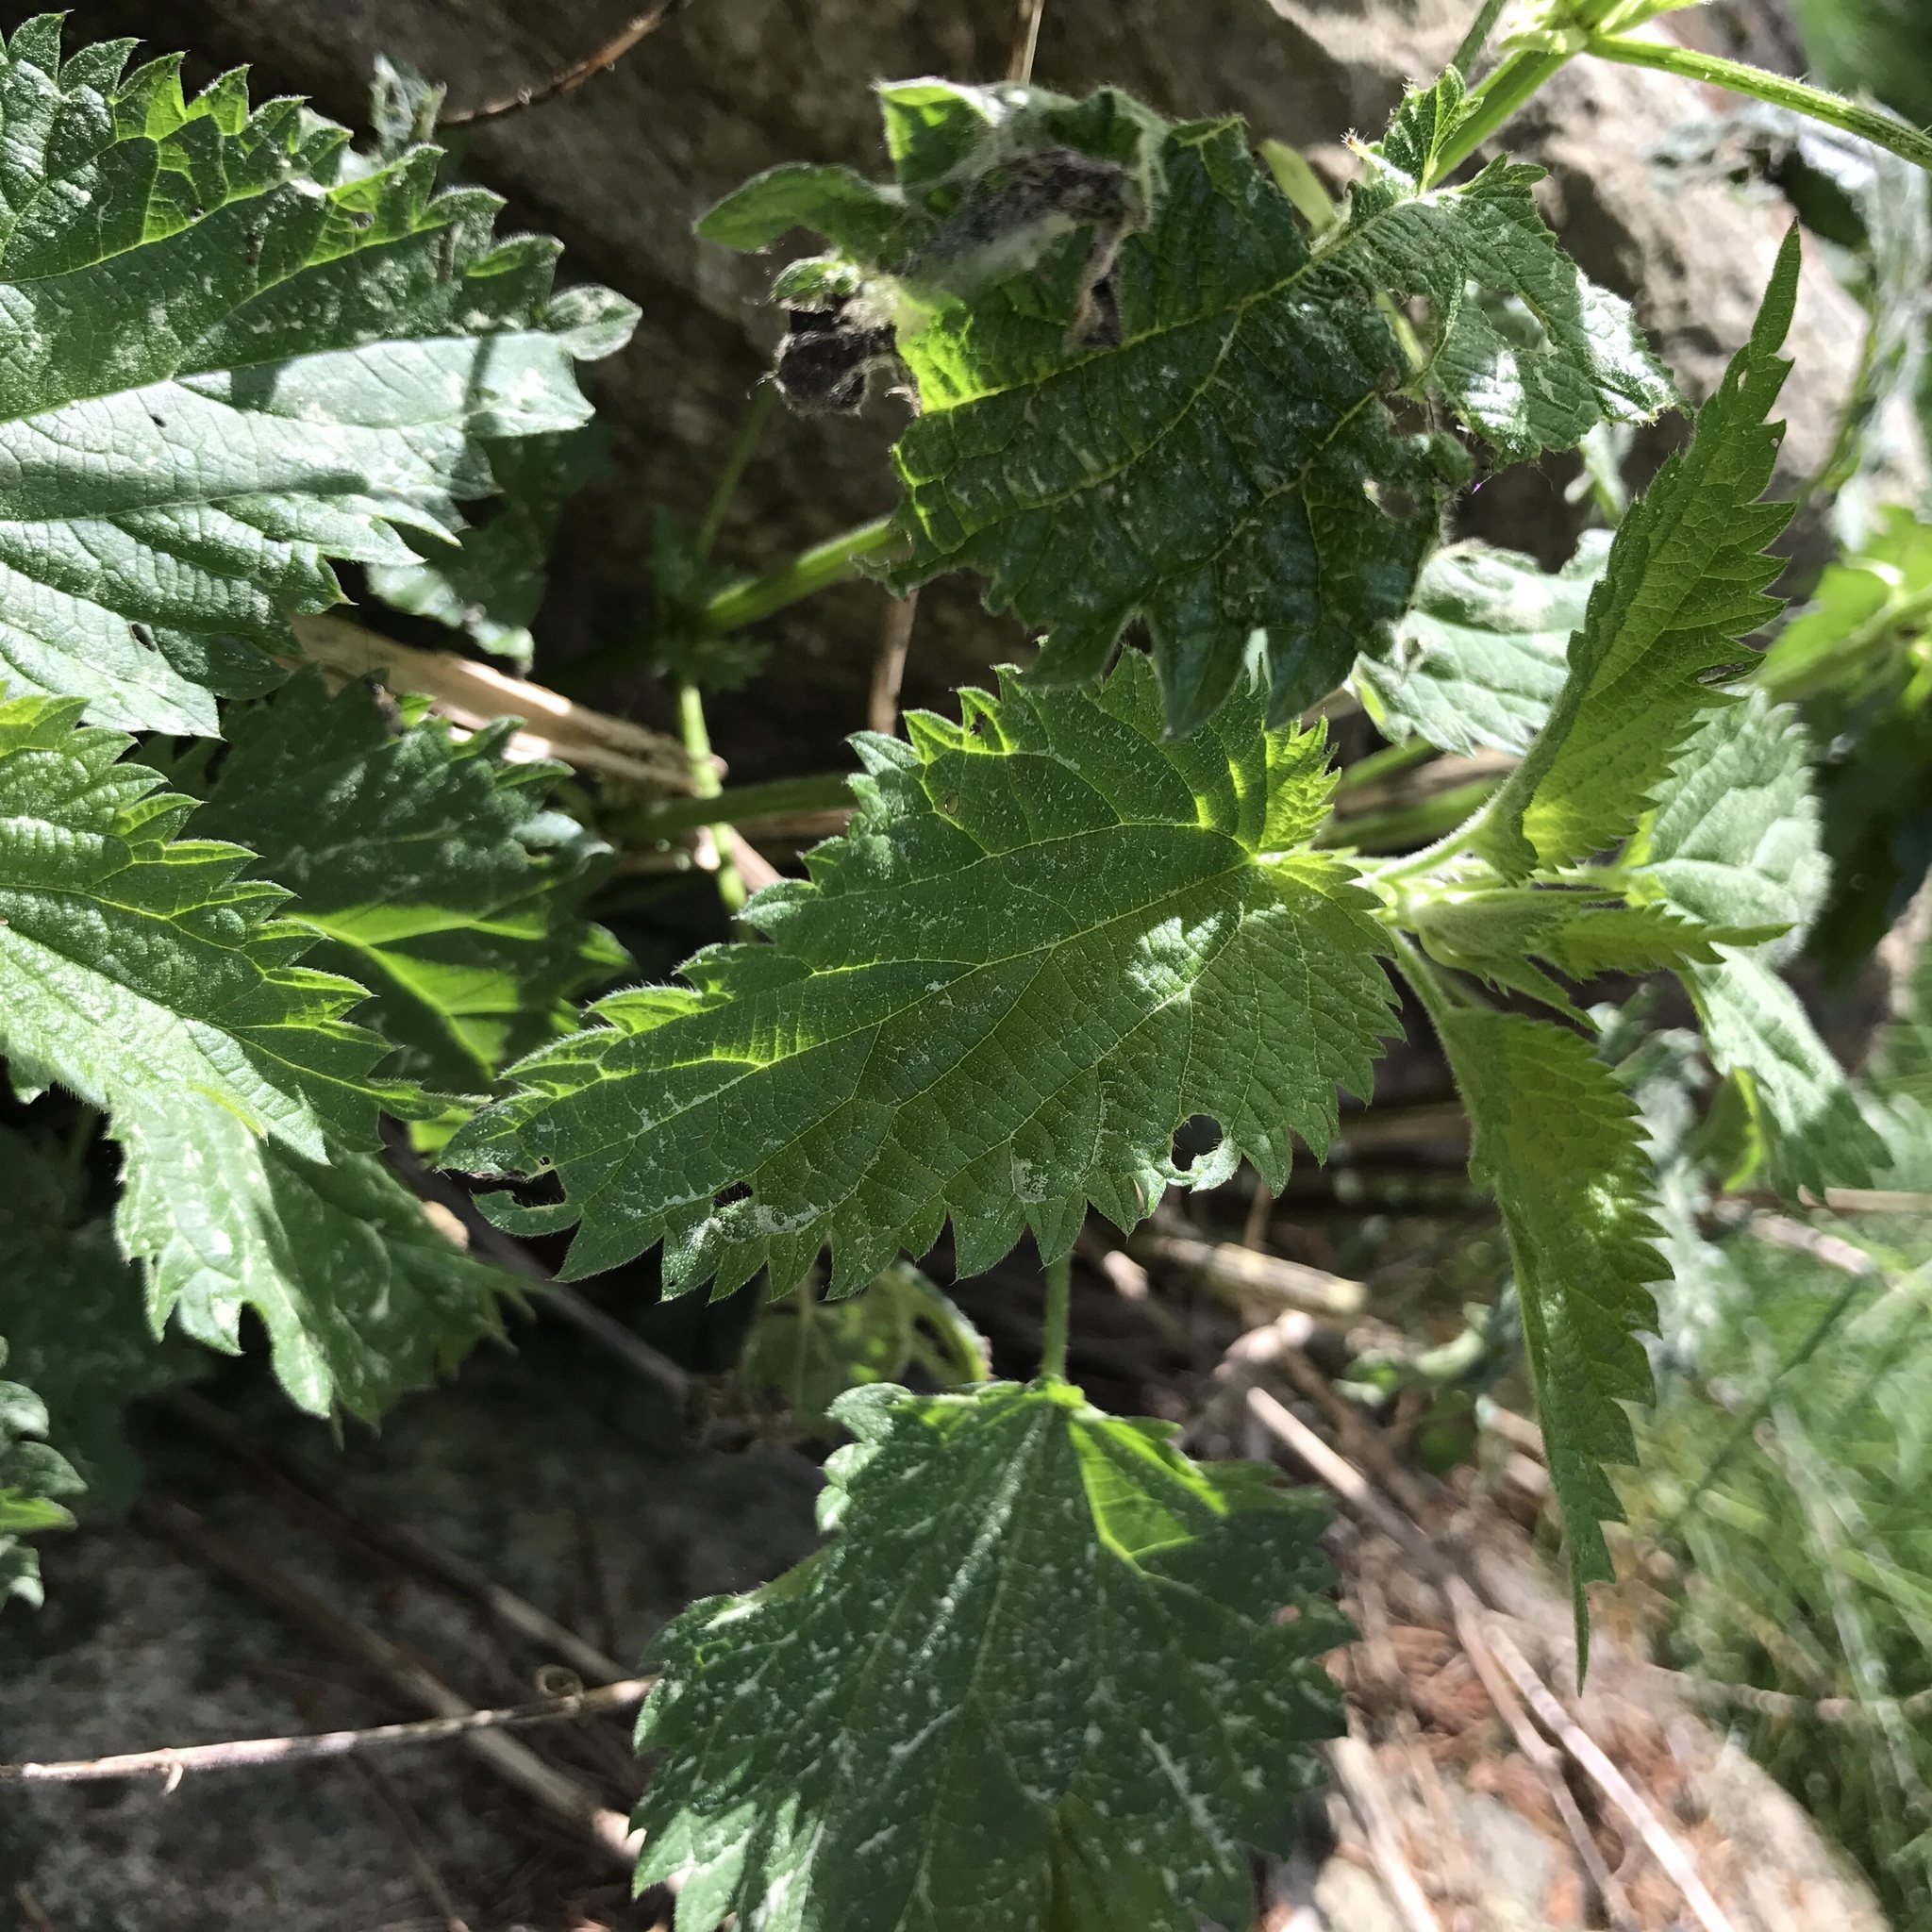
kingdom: Plantae
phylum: Tracheophyta
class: Magnoliopsida
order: Rosales
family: Urticaceae
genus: Urtica
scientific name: Urtica dioica
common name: Common nettle
